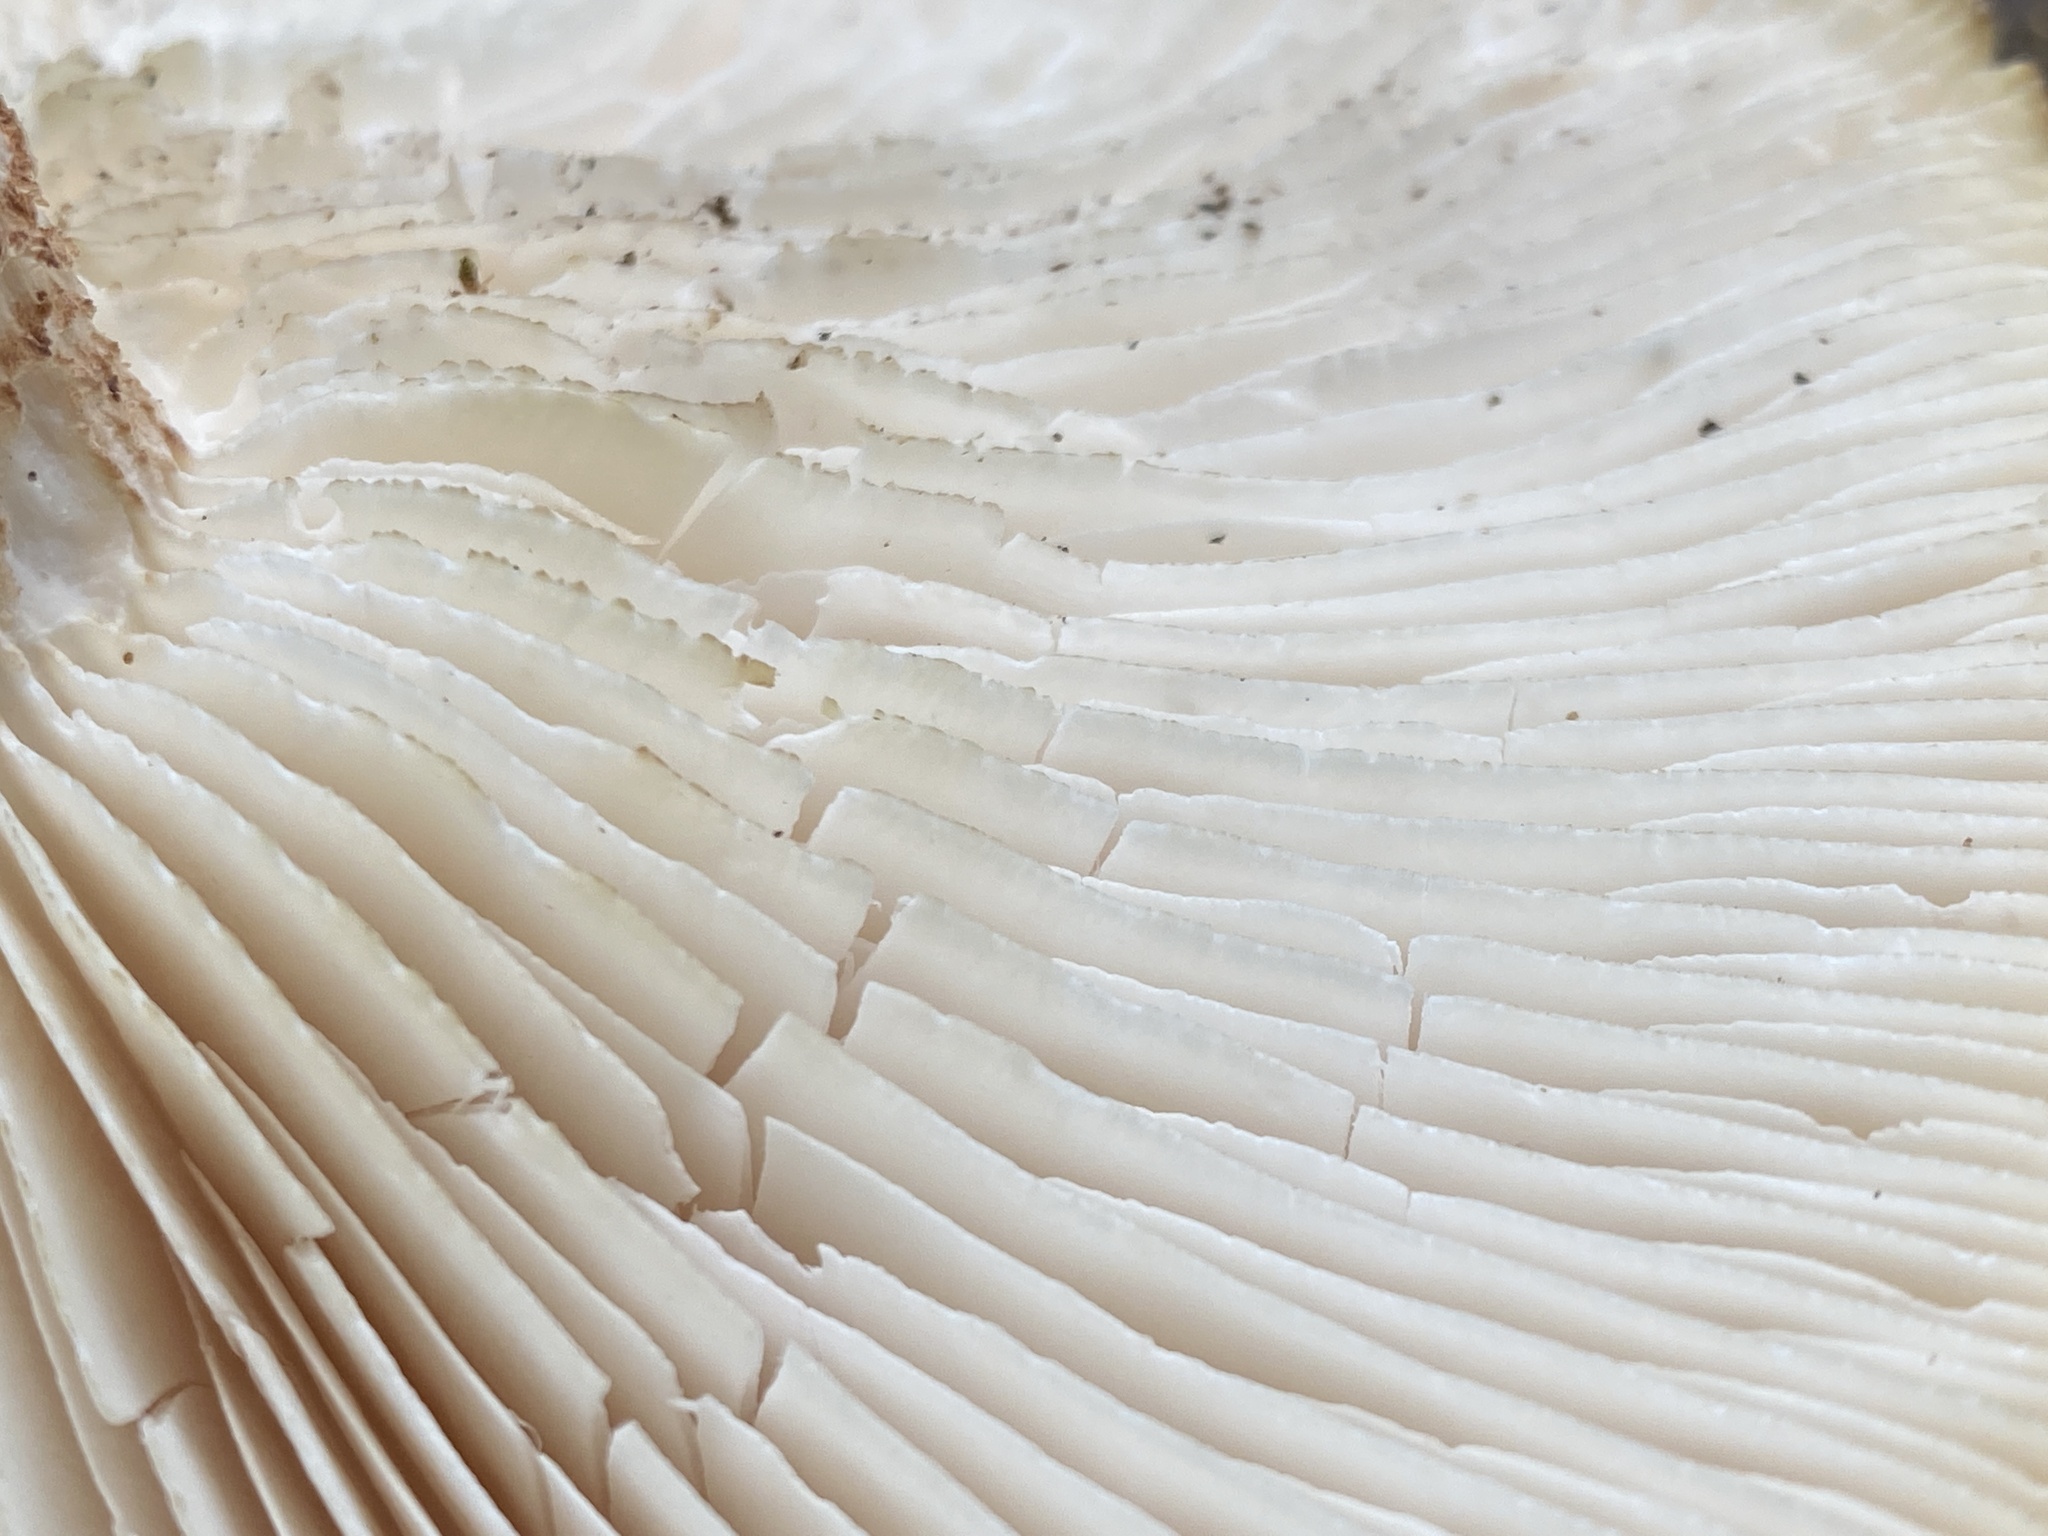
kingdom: Fungi
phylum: Basidiomycota
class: Agaricomycetes
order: Gloeophyllales
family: Gloeophyllaceae
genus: Neolentinus
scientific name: Neolentinus lepideus
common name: Scaly sawgill
